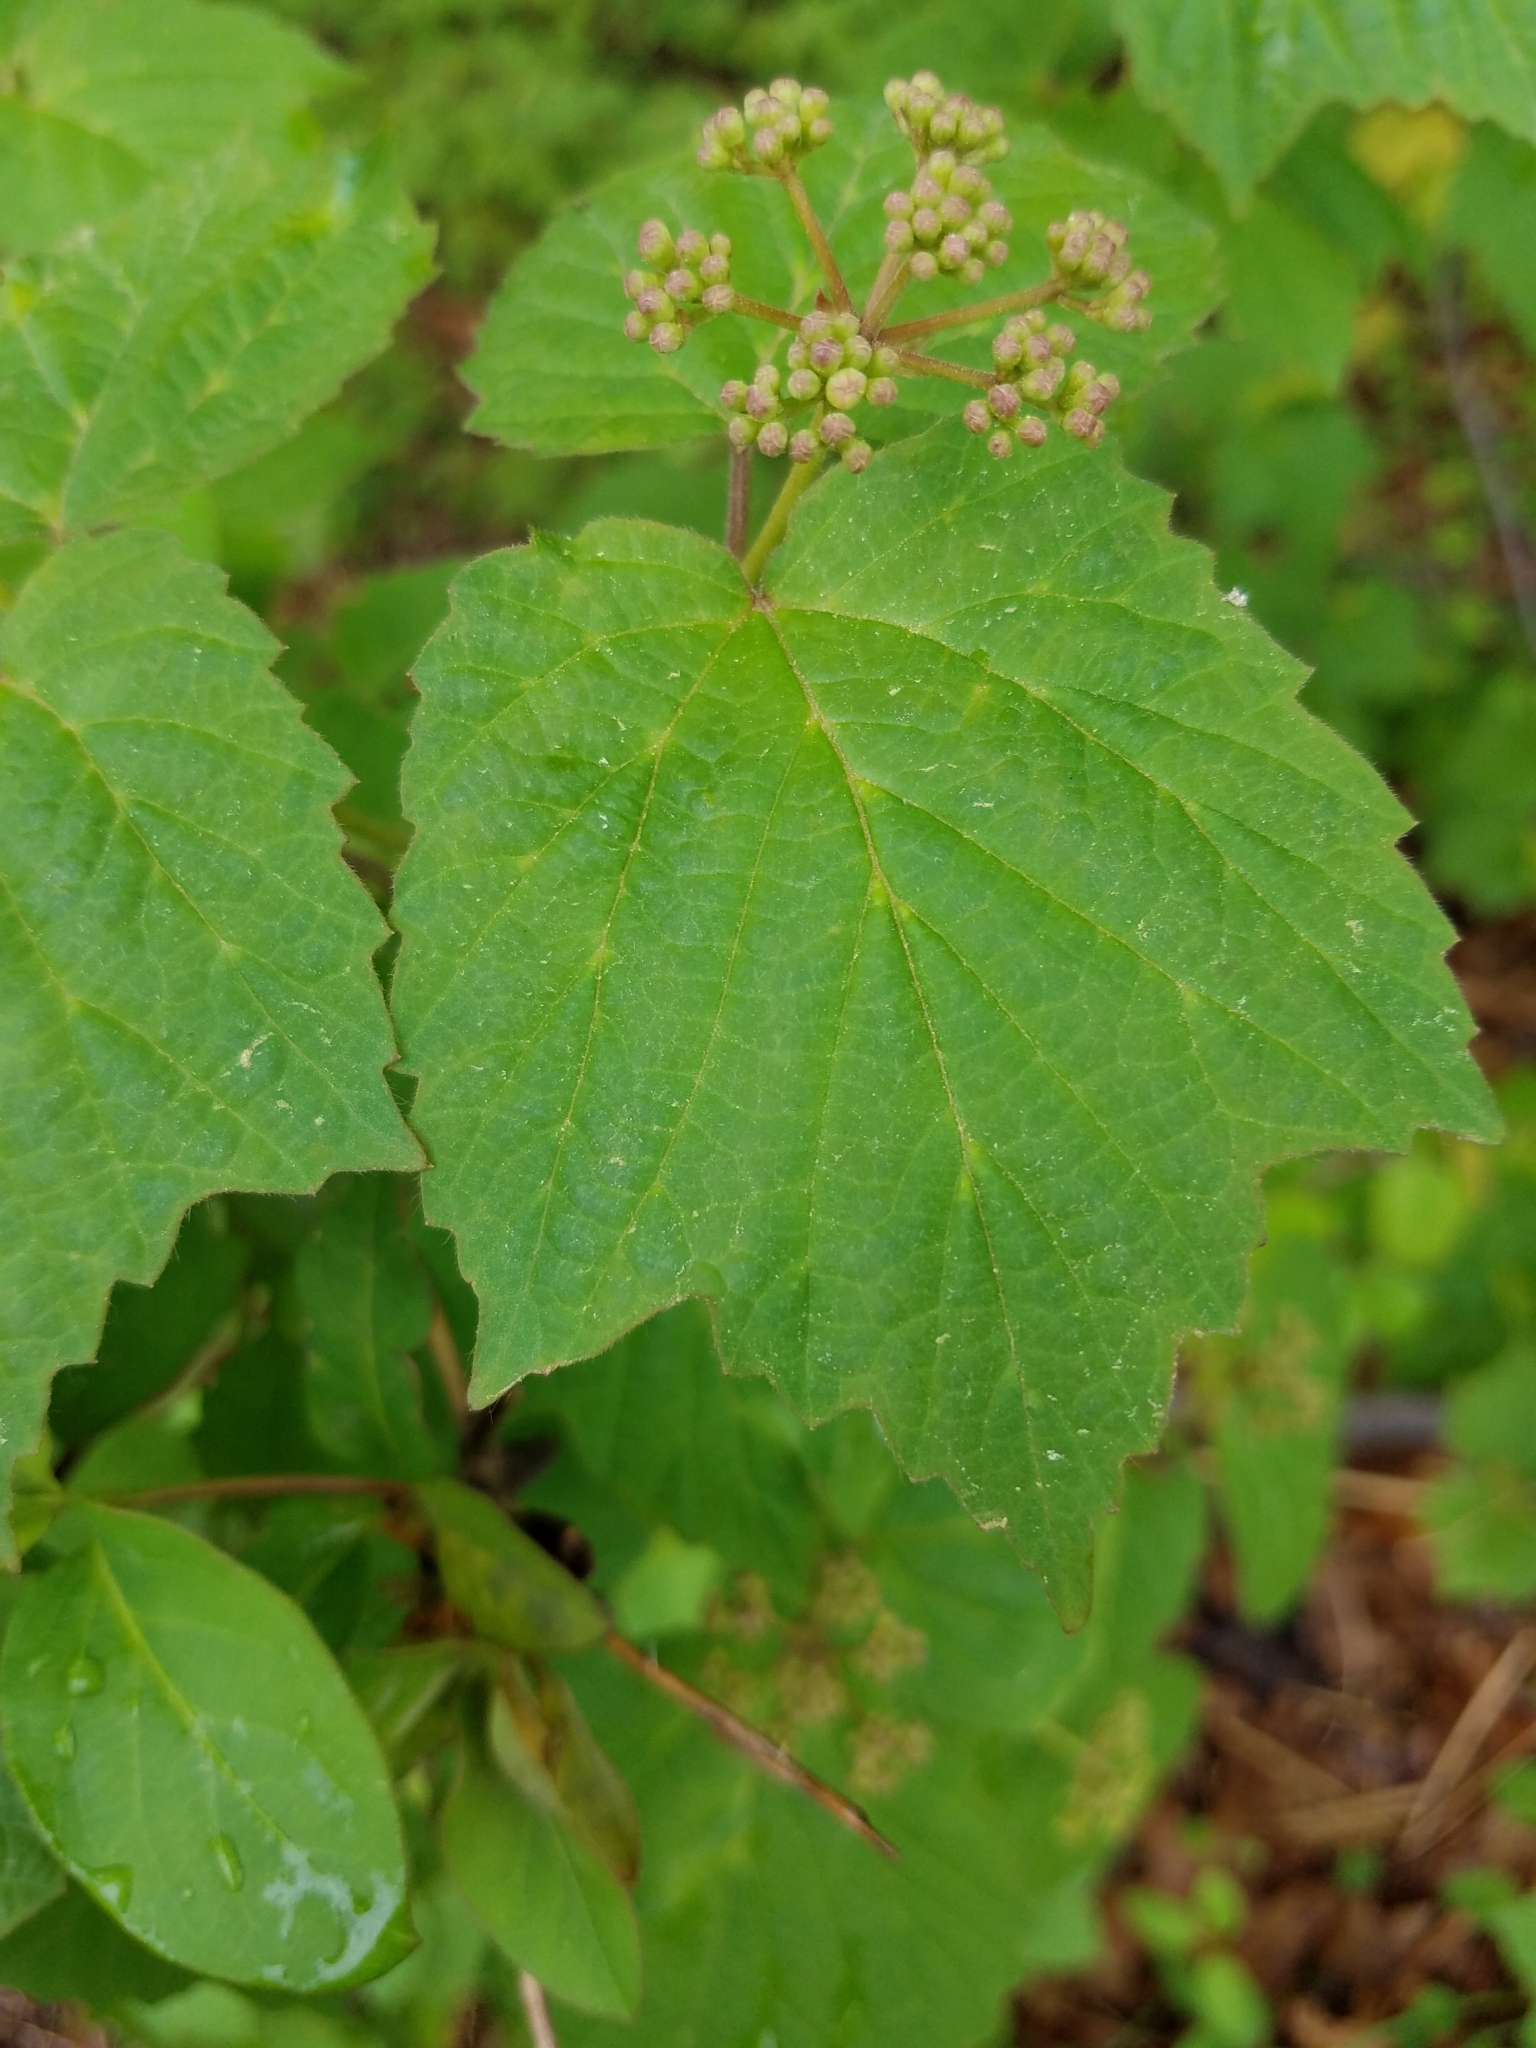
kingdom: Plantae
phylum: Tracheophyta
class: Magnoliopsida
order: Dipsacales
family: Viburnaceae
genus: Viburnum
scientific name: Viburnum acerifolium
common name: Dockmackie
